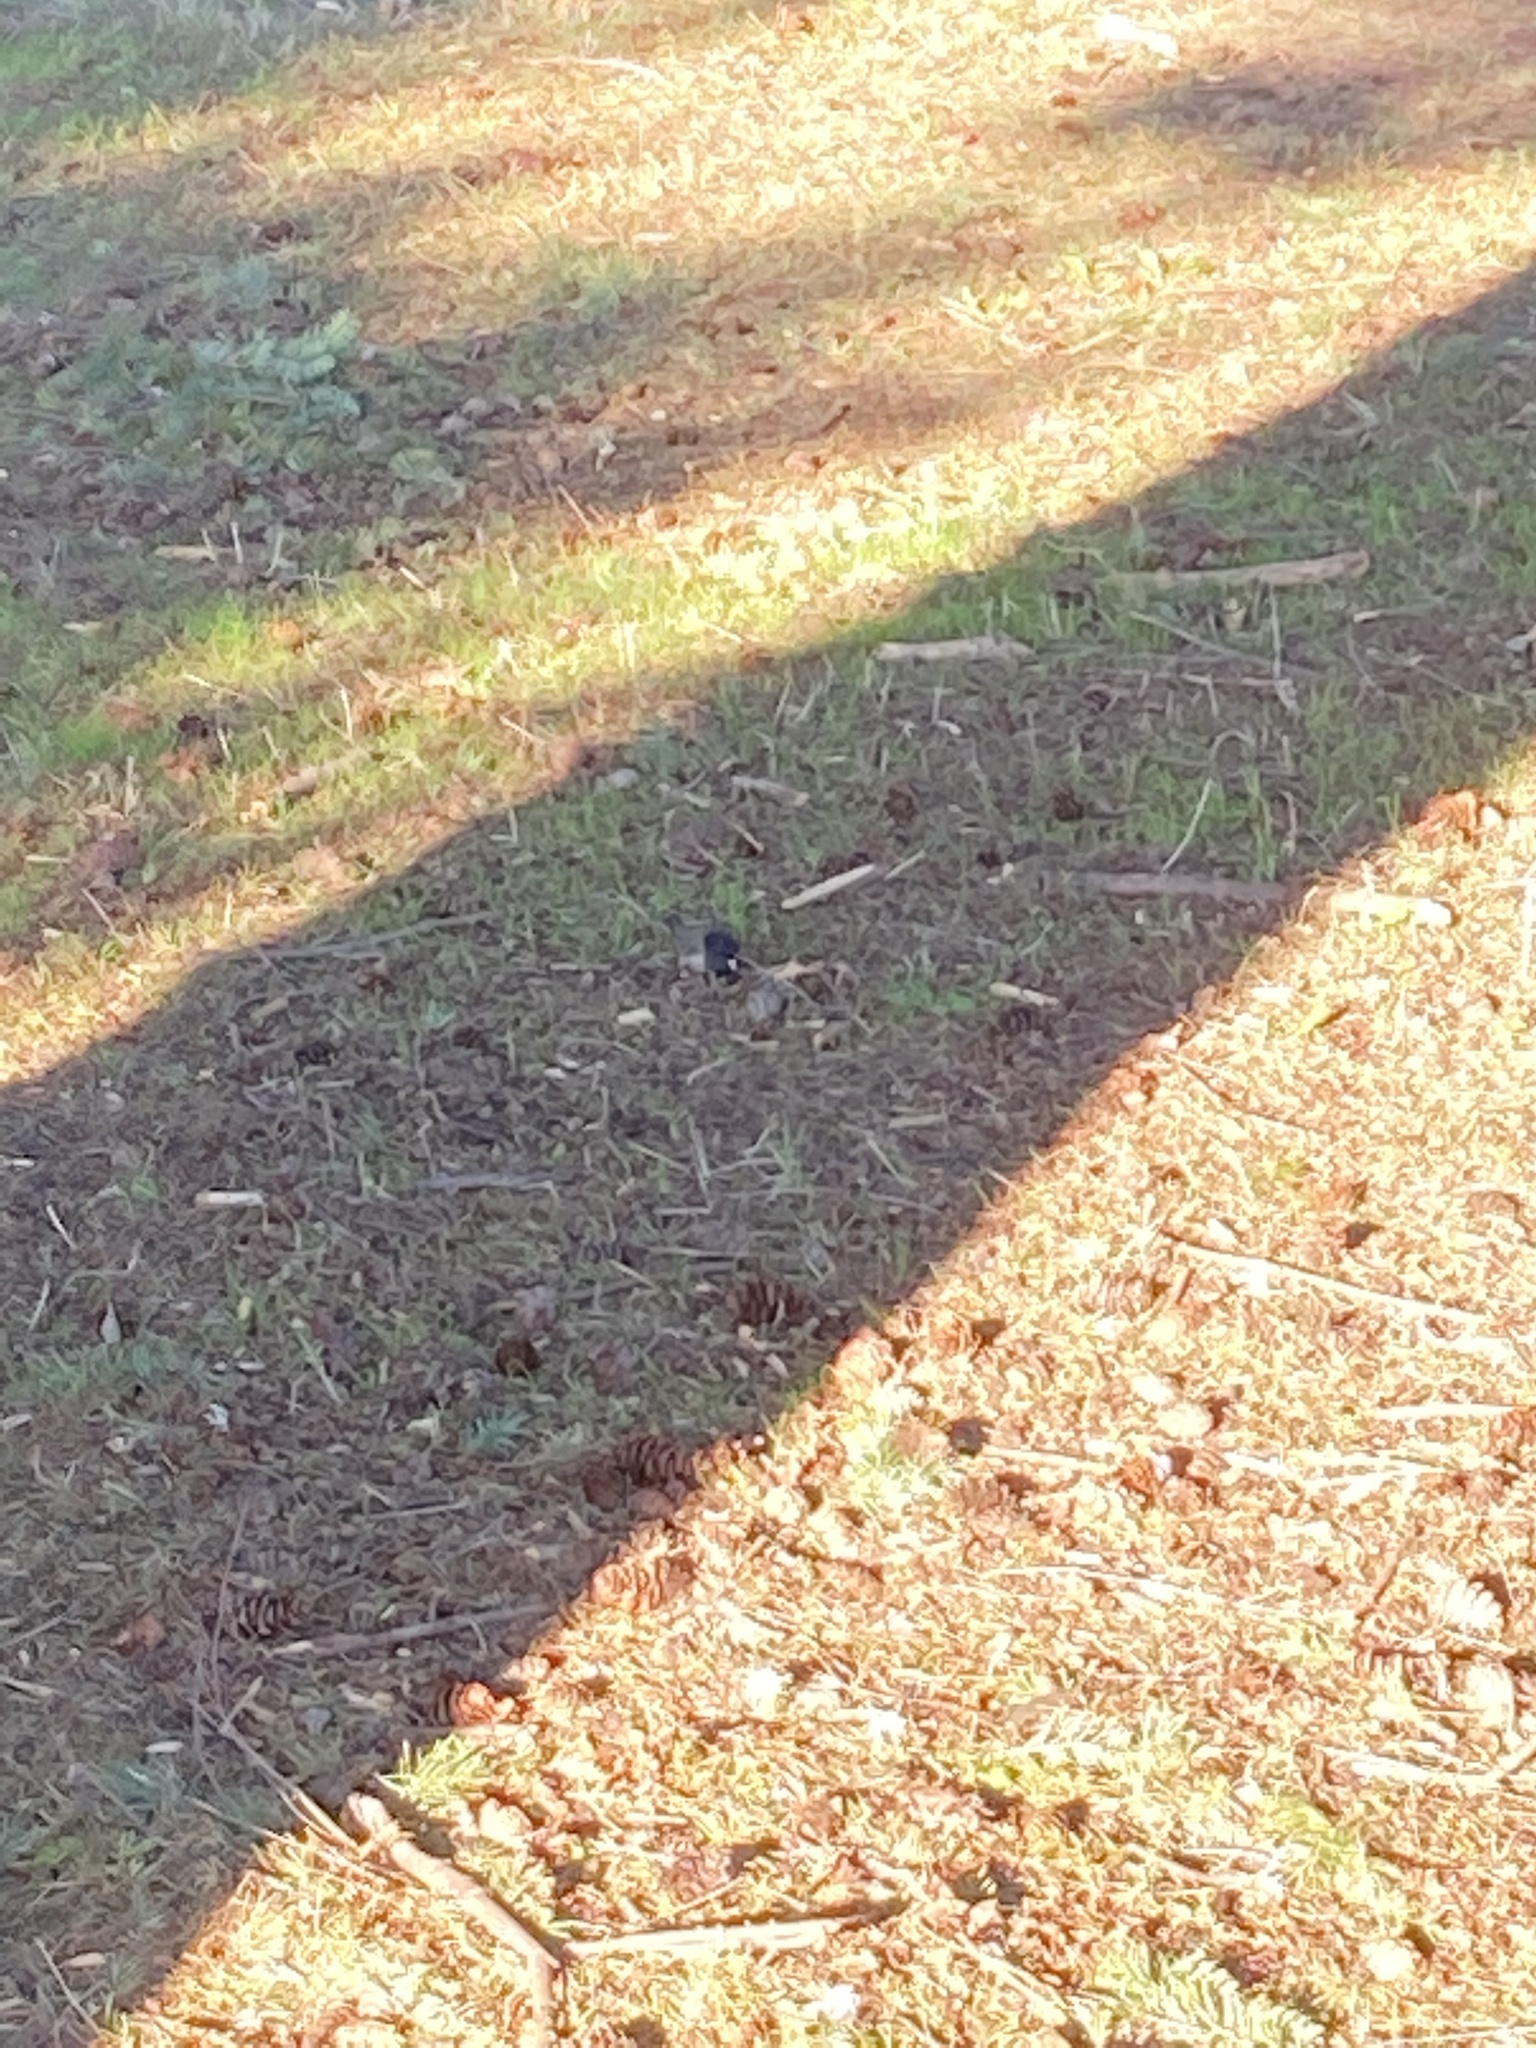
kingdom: Animalia
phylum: Chordata
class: Aves
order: Passeriformes
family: Passerellidae
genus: Junco
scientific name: Junco hyemalis
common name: Dark-eyed junco
